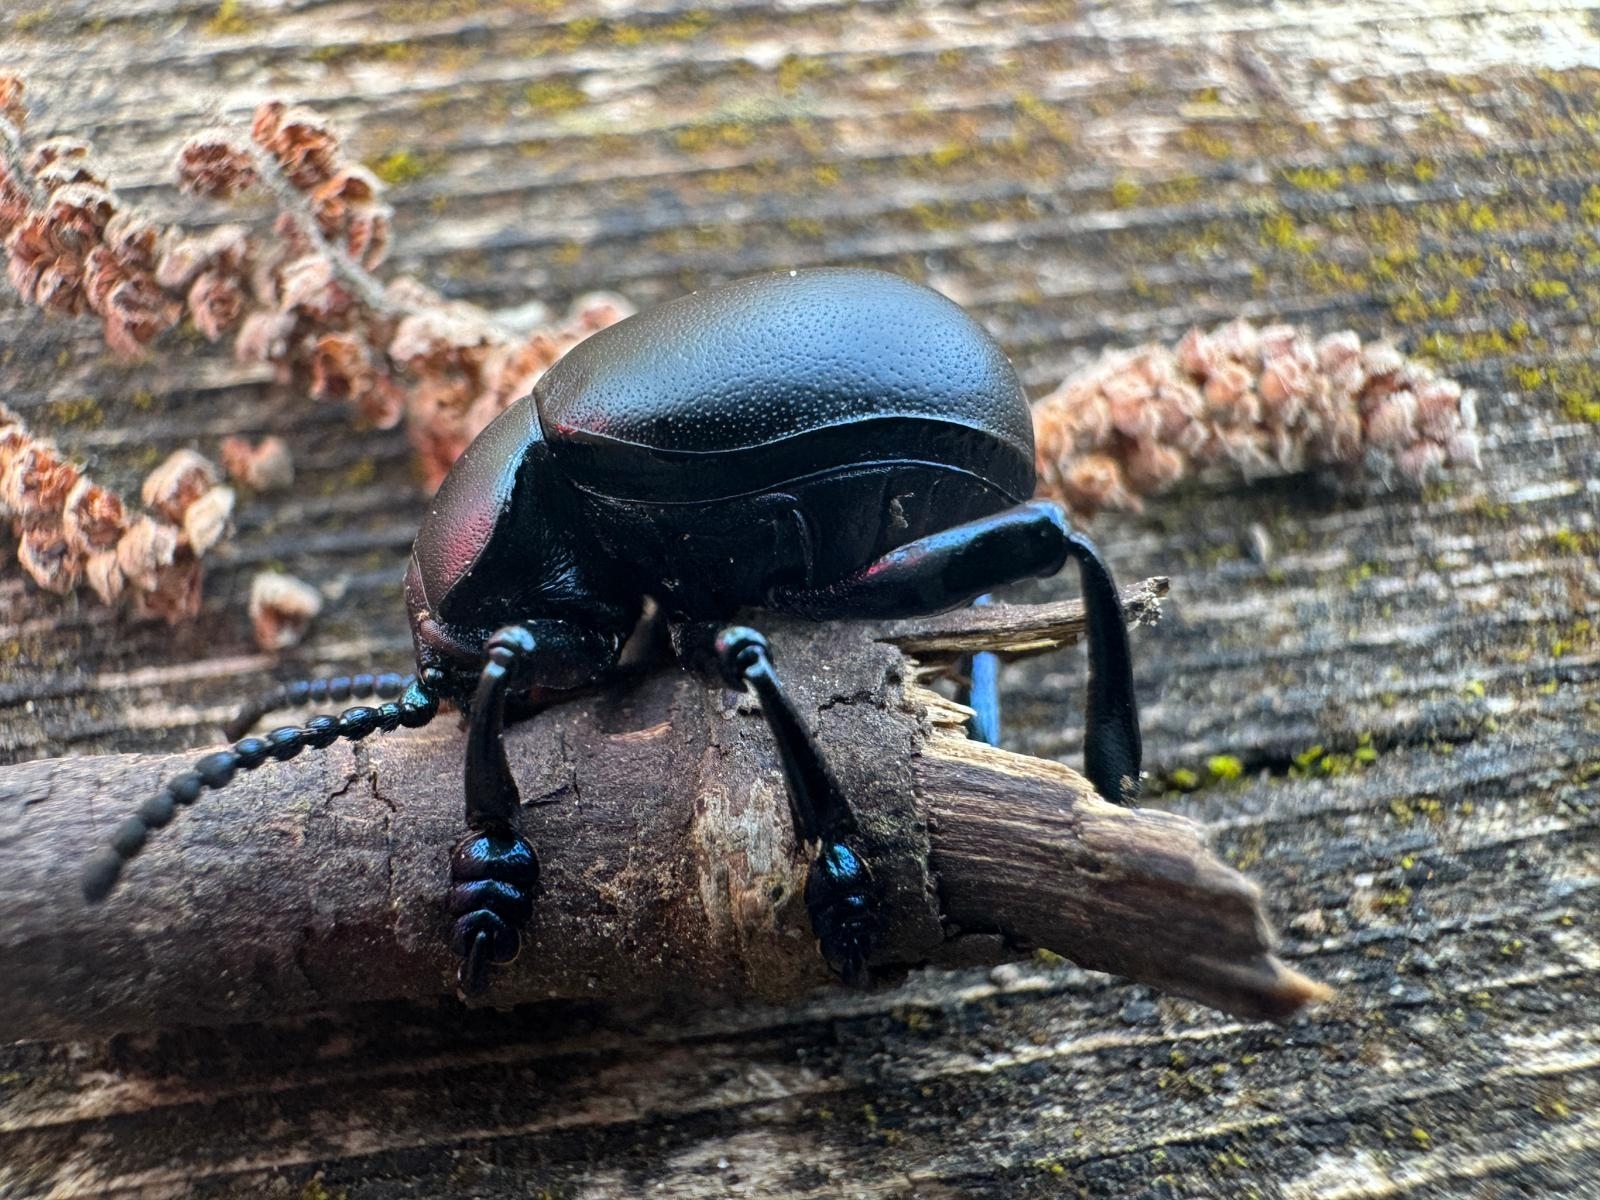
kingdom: Animalia
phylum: Arthropoda
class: Insecta
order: Coleoptera
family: Chrysomelidae
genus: Timarcha
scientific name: Timarcha tenebricosa
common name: Bloody-nosed beetle
